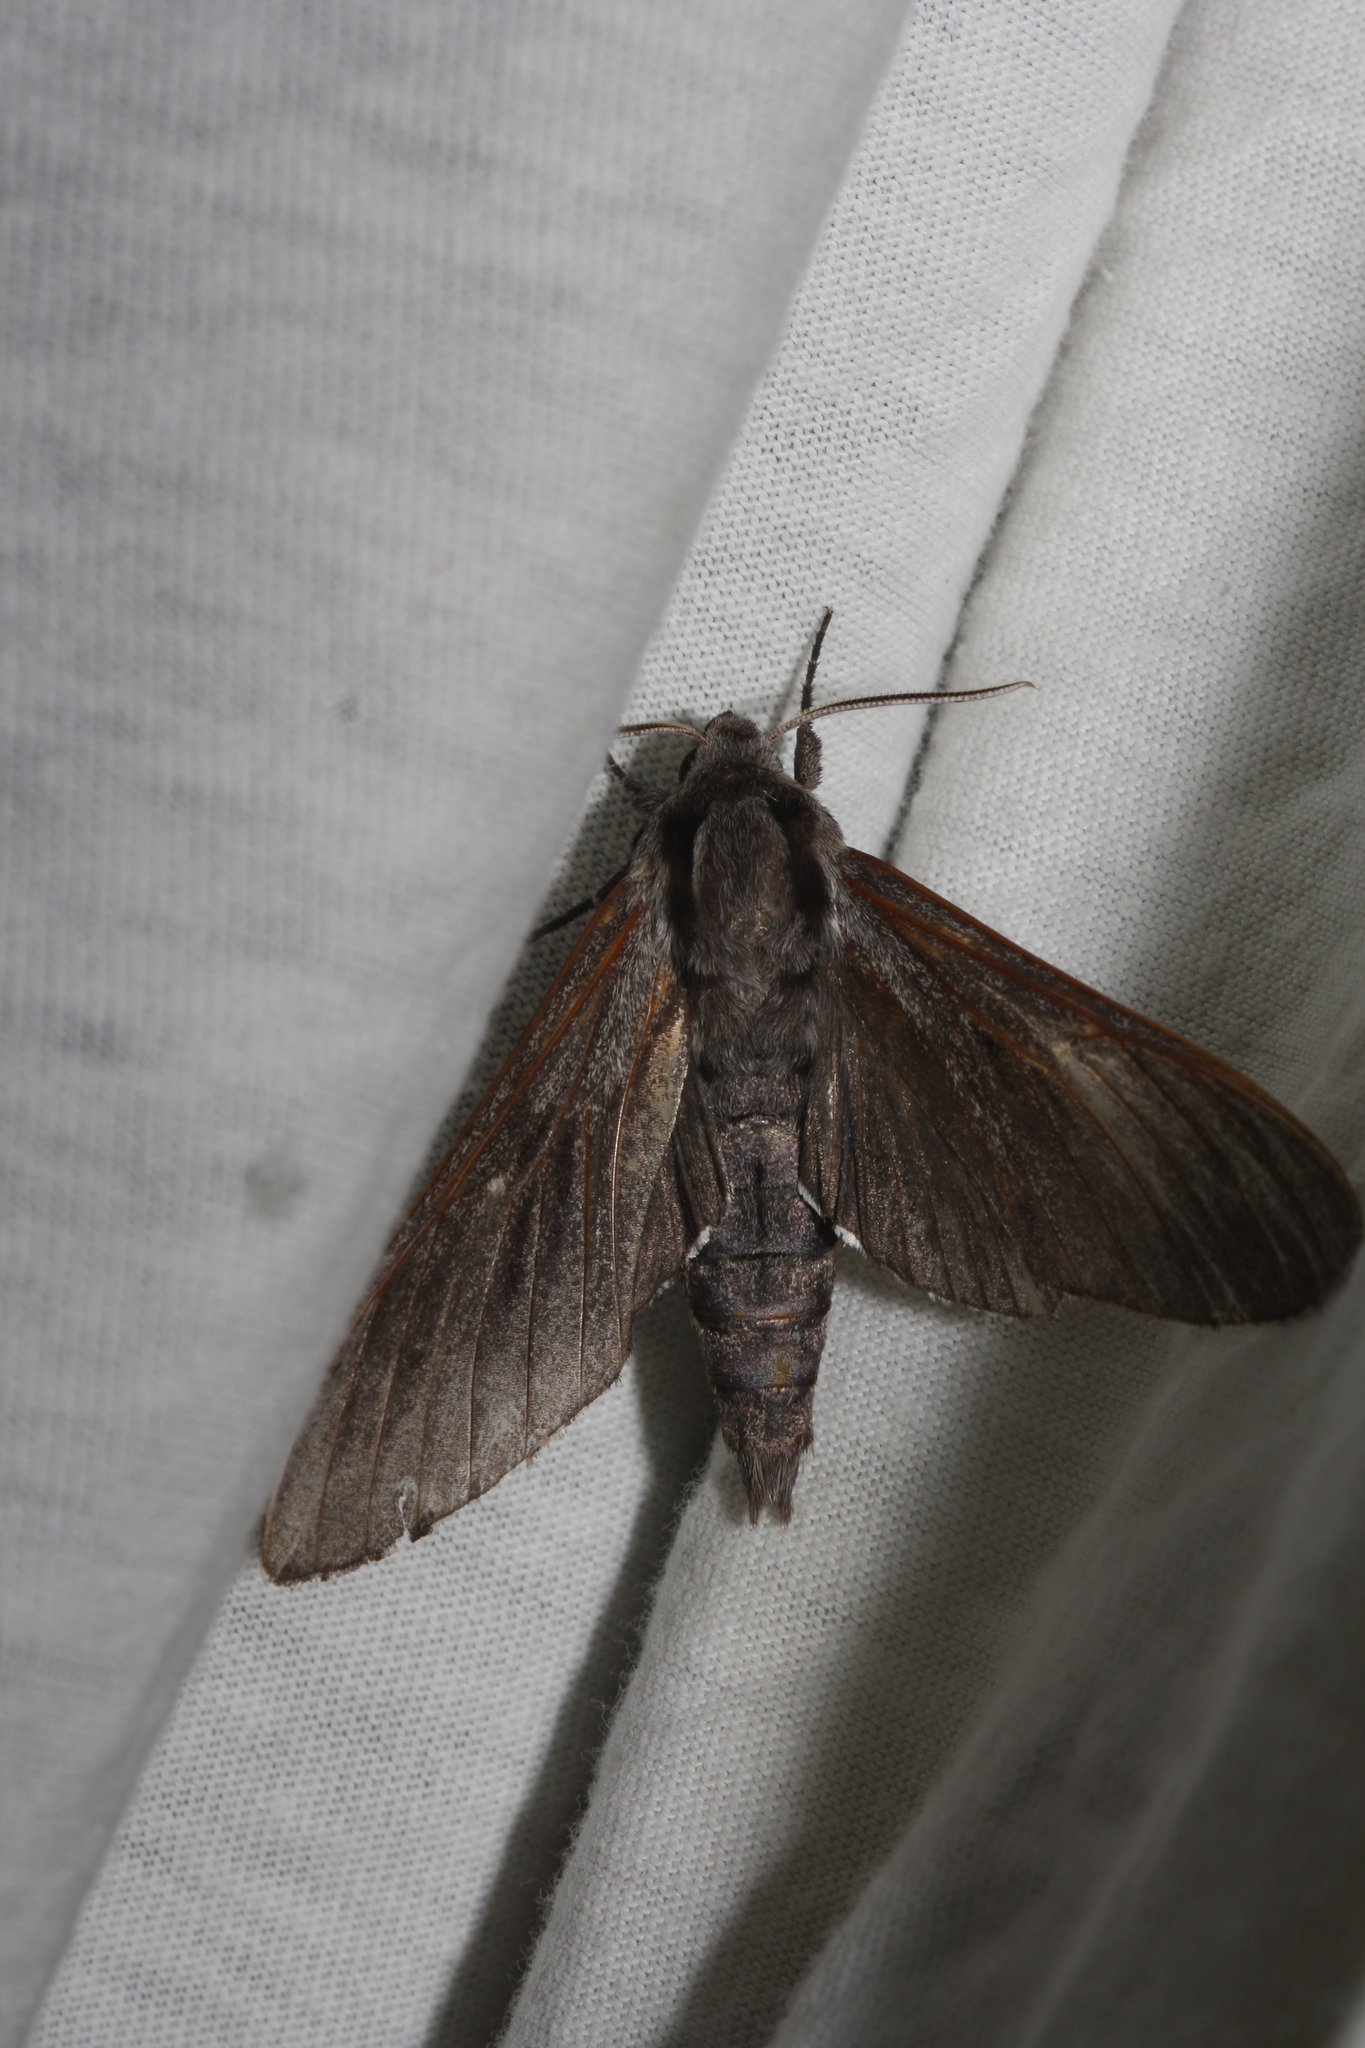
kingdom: Animalia
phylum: Arthropoda
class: Insecta
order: Lepidoptera
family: Sphingidae
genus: Sphinx
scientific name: Sphinx pinastri
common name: Pine hawk-moth
